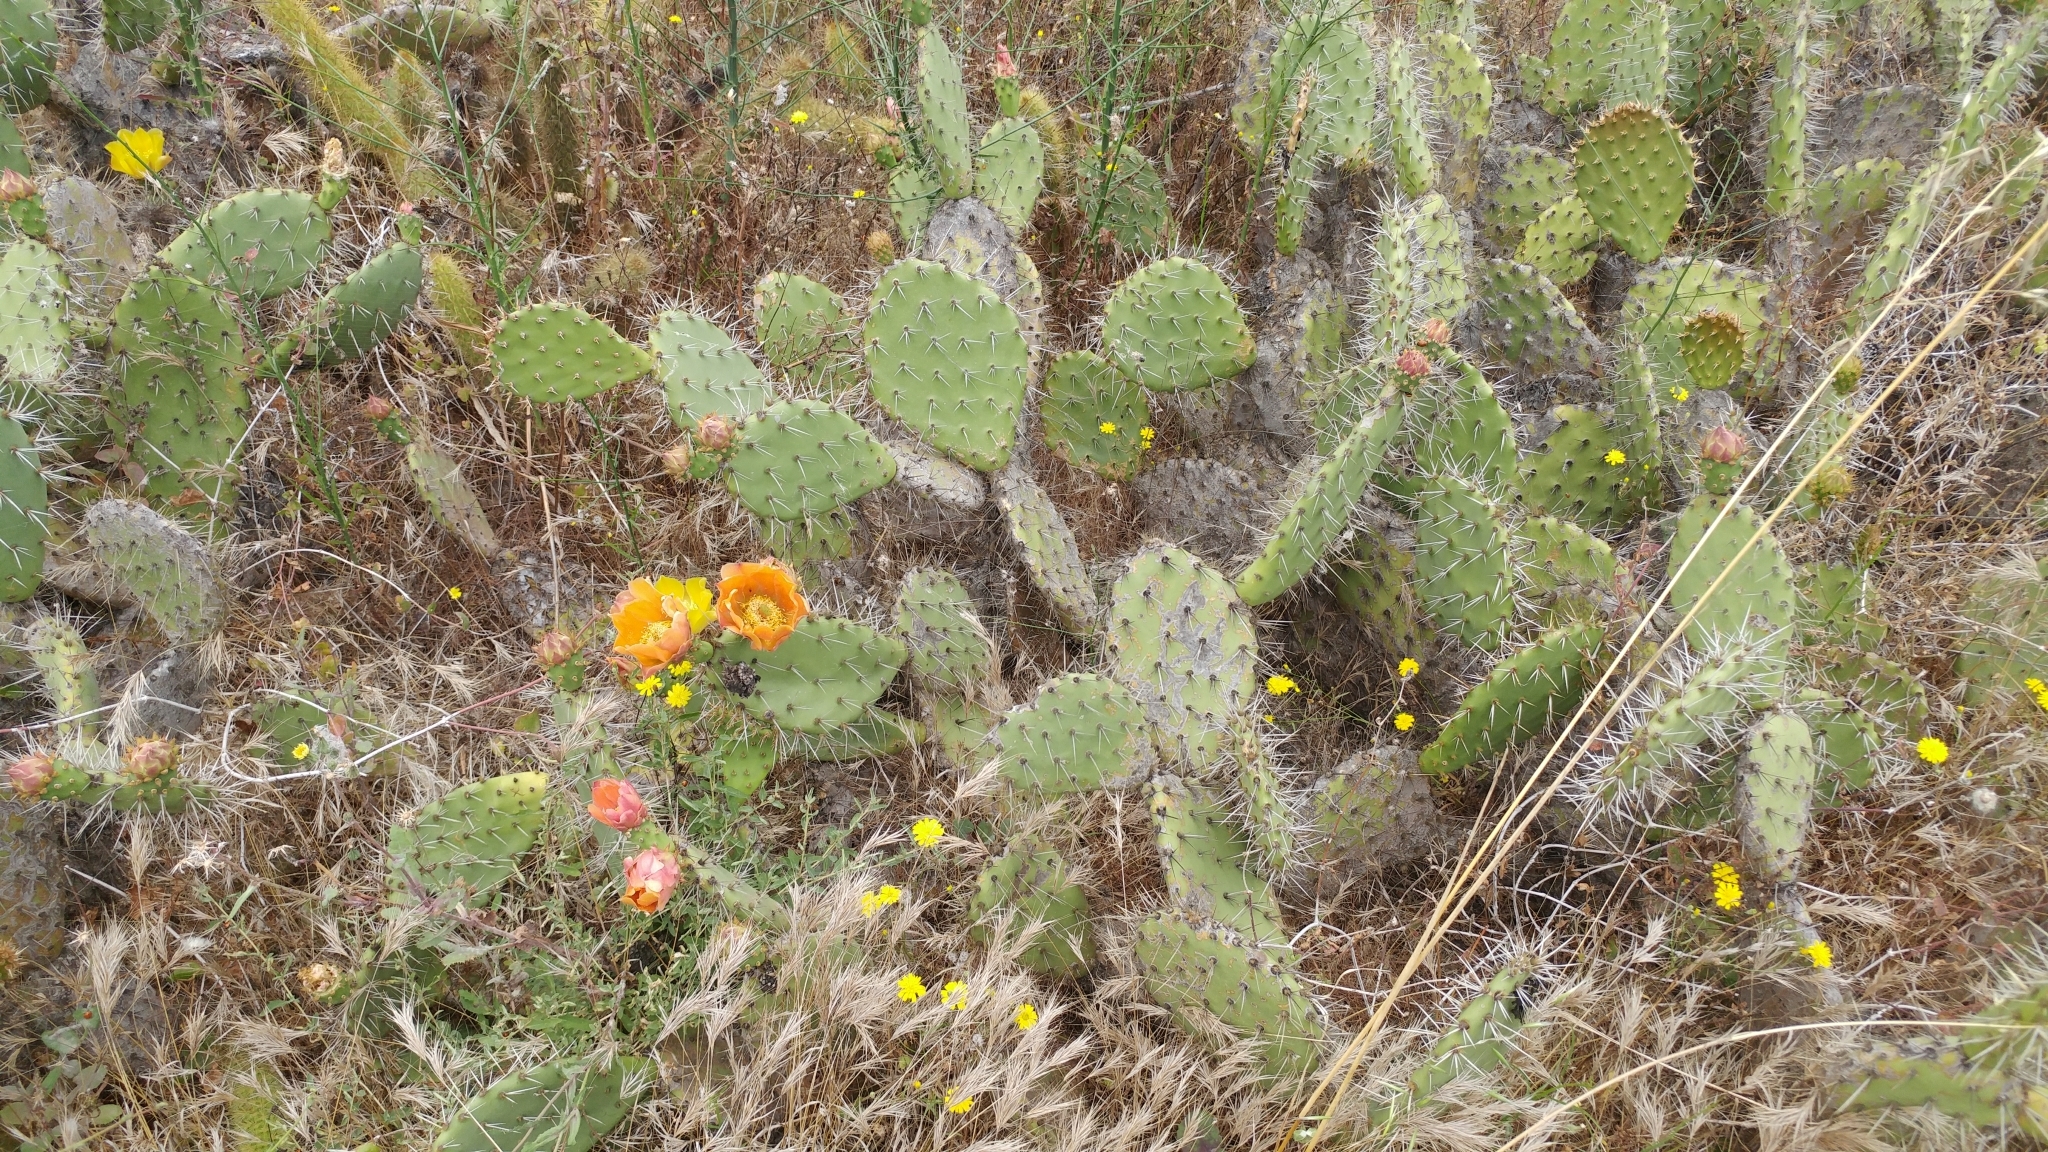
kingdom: Plantae
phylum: Tracheophyta
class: Magnoliopsida
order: Caryophyllales
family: Cactaceae
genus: Opuntia
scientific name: Opuntia littoralis
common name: Coastal prickly-pear
